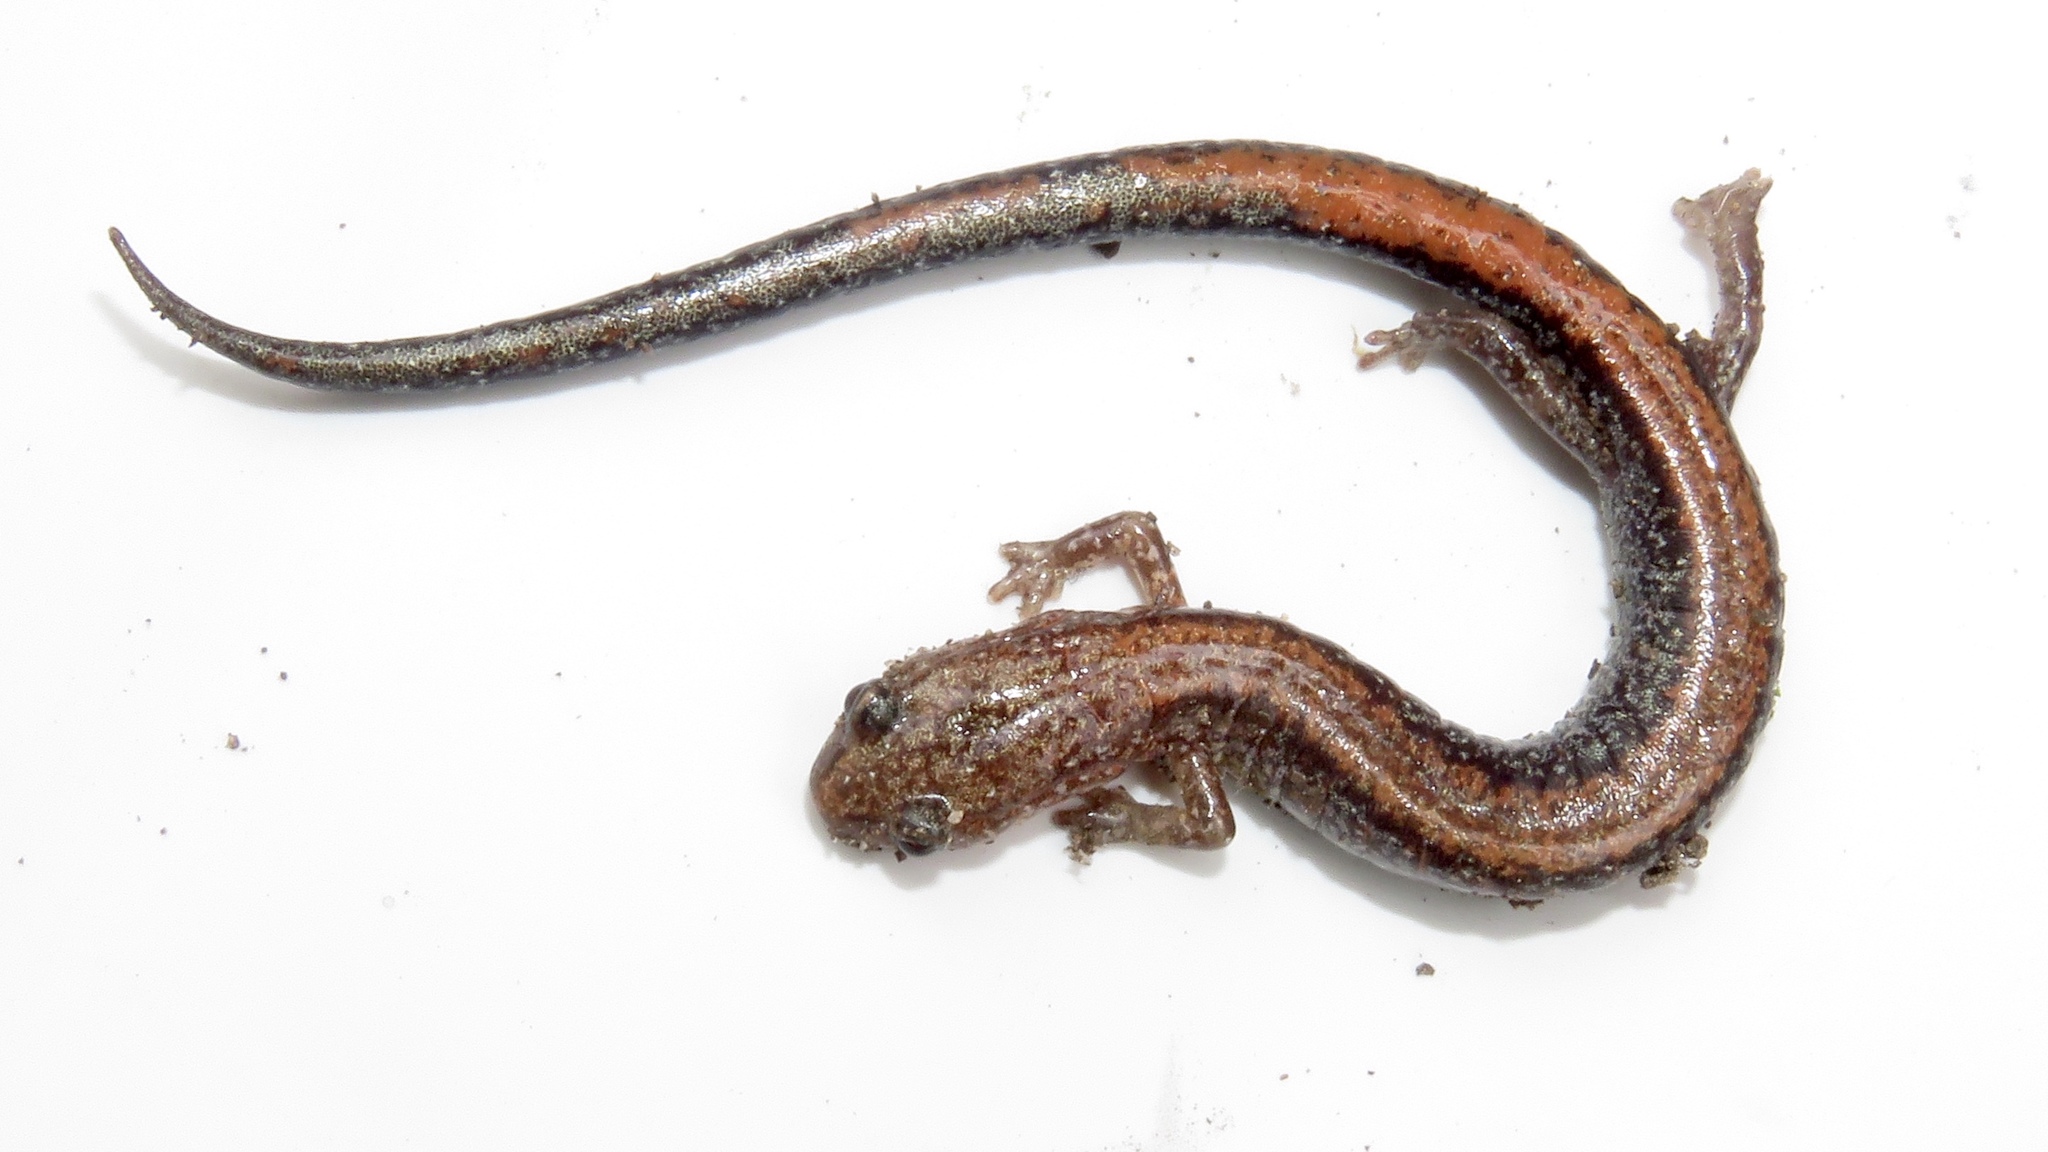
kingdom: Animalia
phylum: Chordata
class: Amphibia
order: Caudata
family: Plethodontidae
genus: Plethodon
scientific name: Plethodon cinereus
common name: Redback salamander
